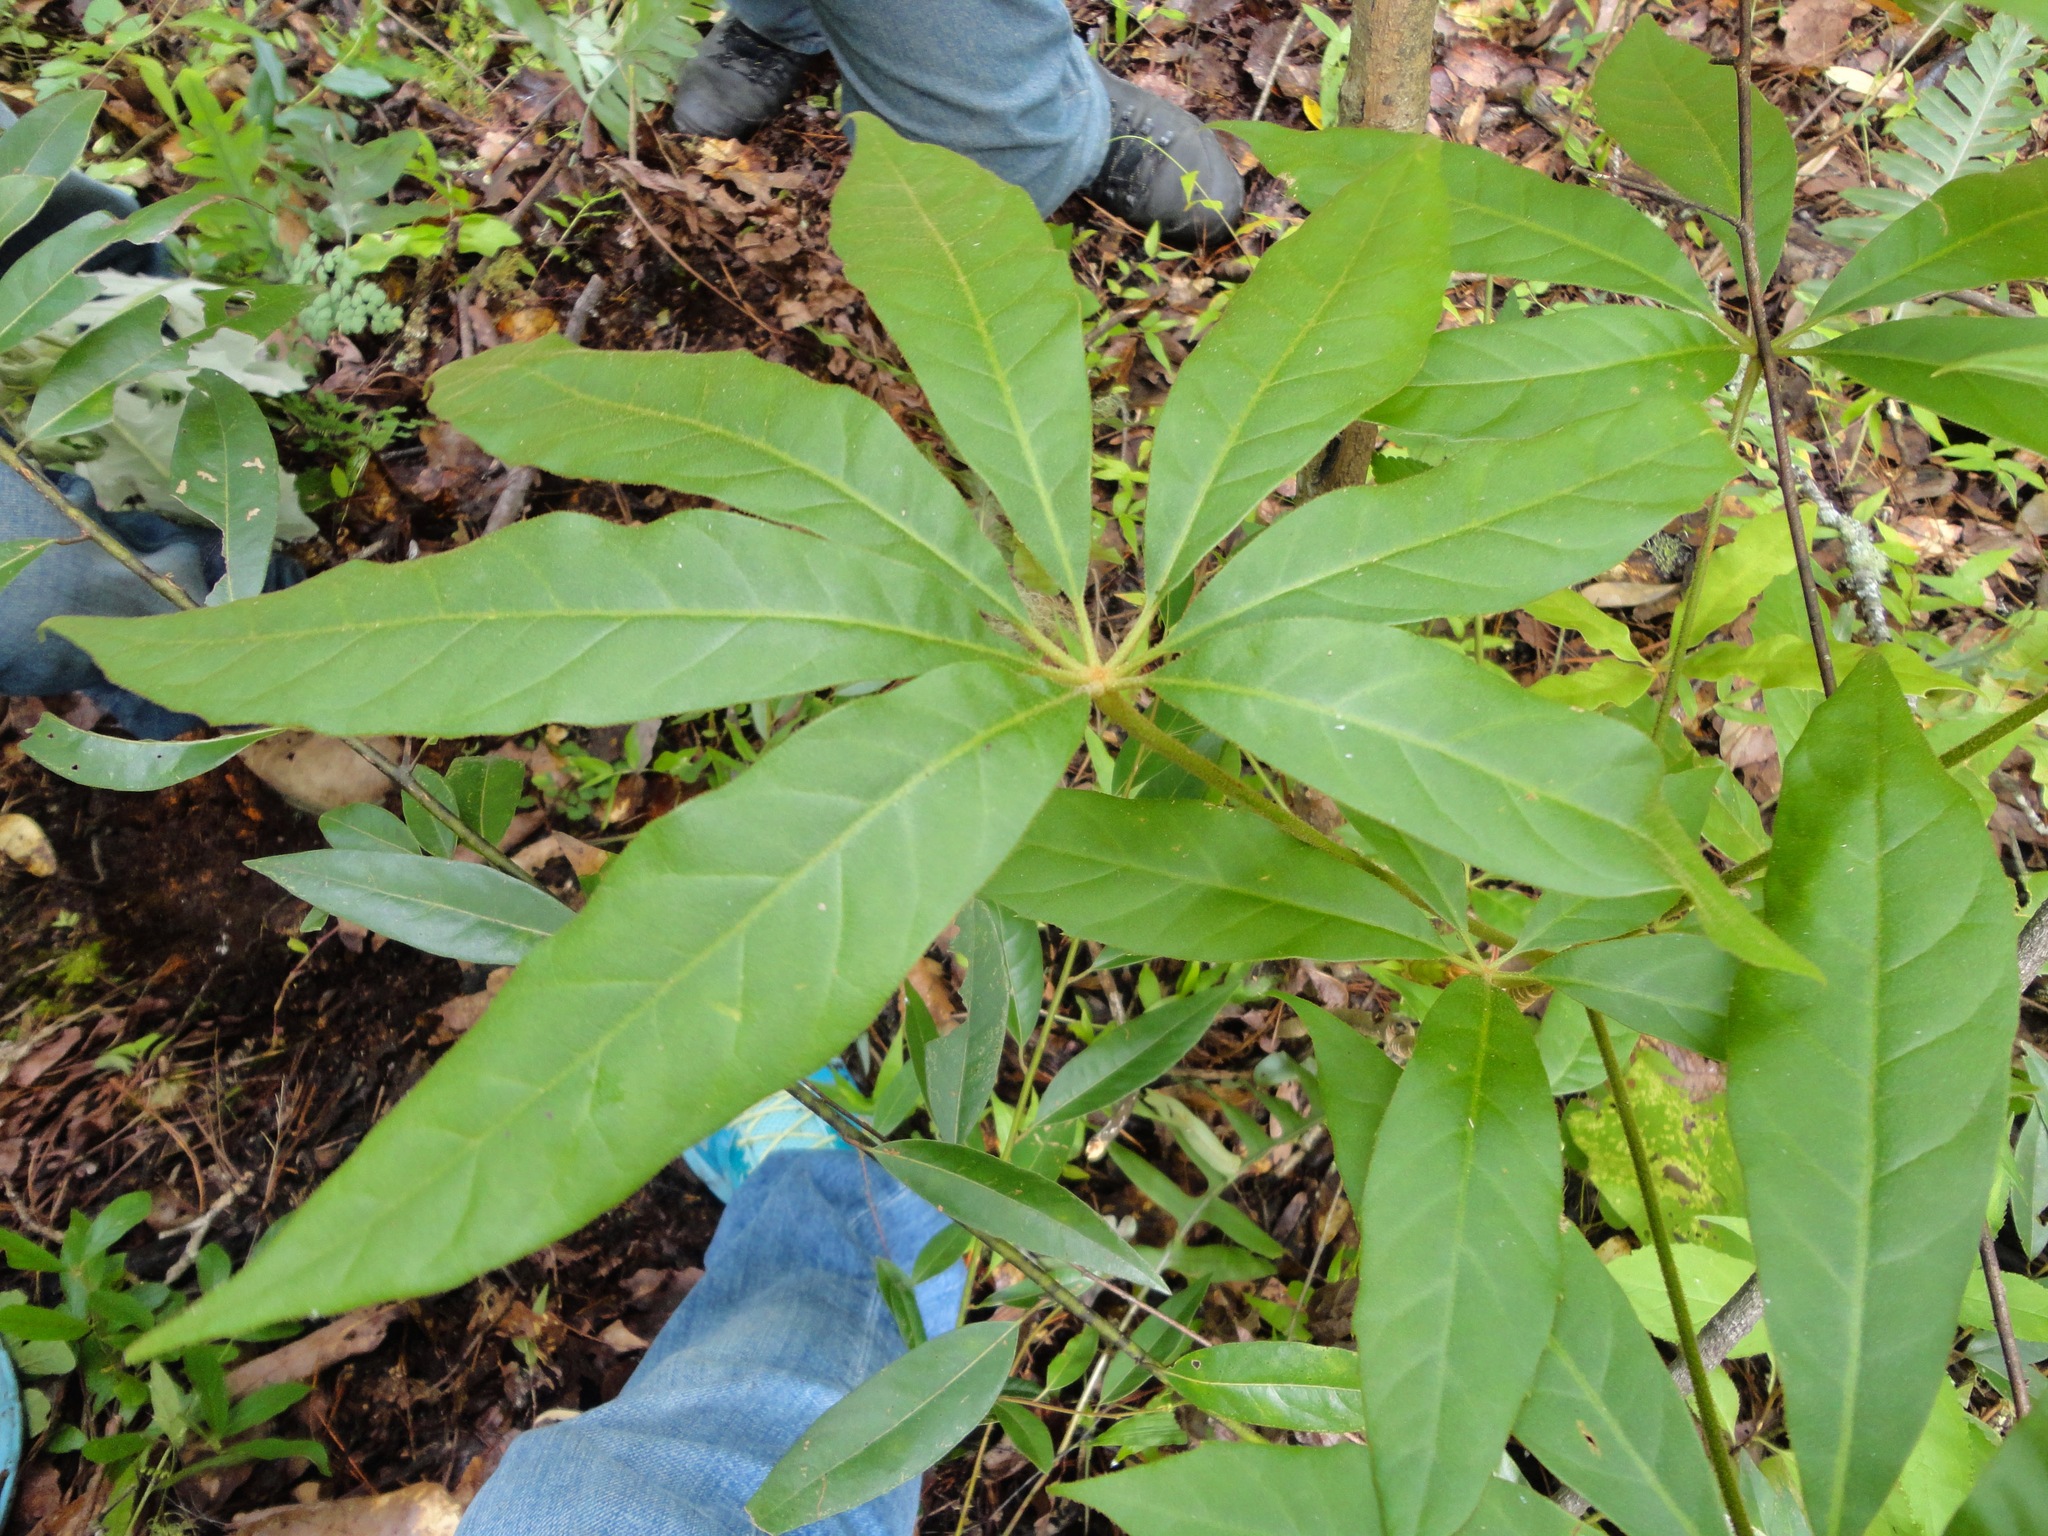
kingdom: Plantae
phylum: Tracheophyta
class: Magnoliopsida
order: Apiales
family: Araliaceae
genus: Oreopanax
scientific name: Oreopanax xalapensis
